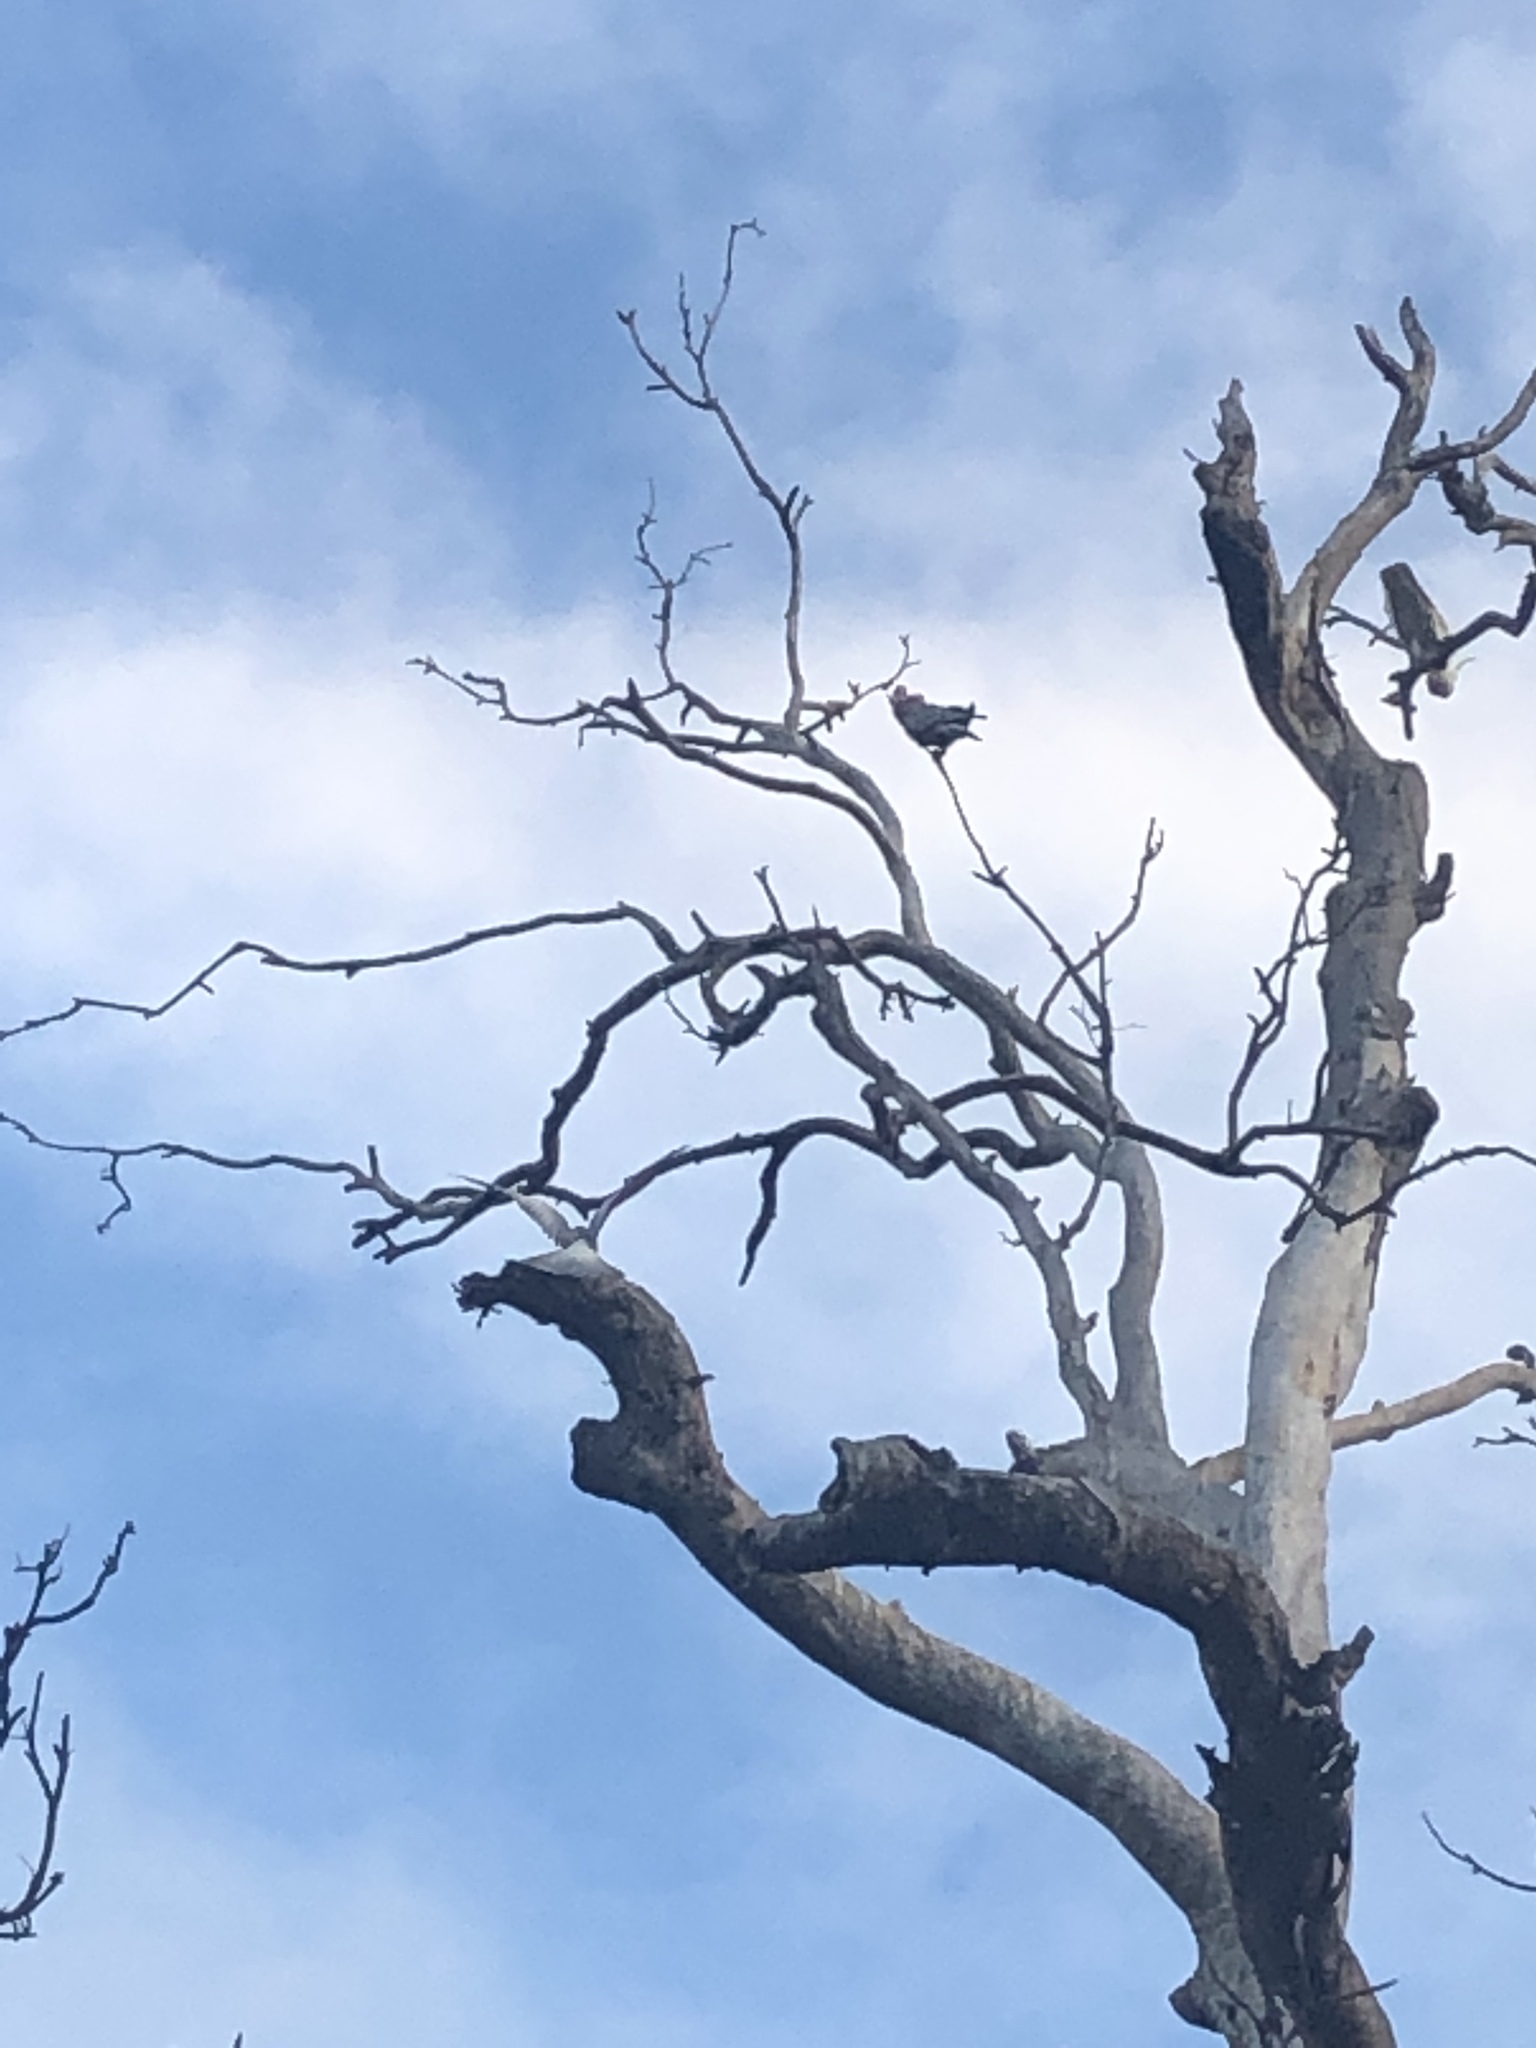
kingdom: Animalia
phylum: Chordata
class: Aves
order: Psittaciformes
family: Psittacidae
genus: Eolophus
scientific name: Eolophus roseicapilla
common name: Galah
